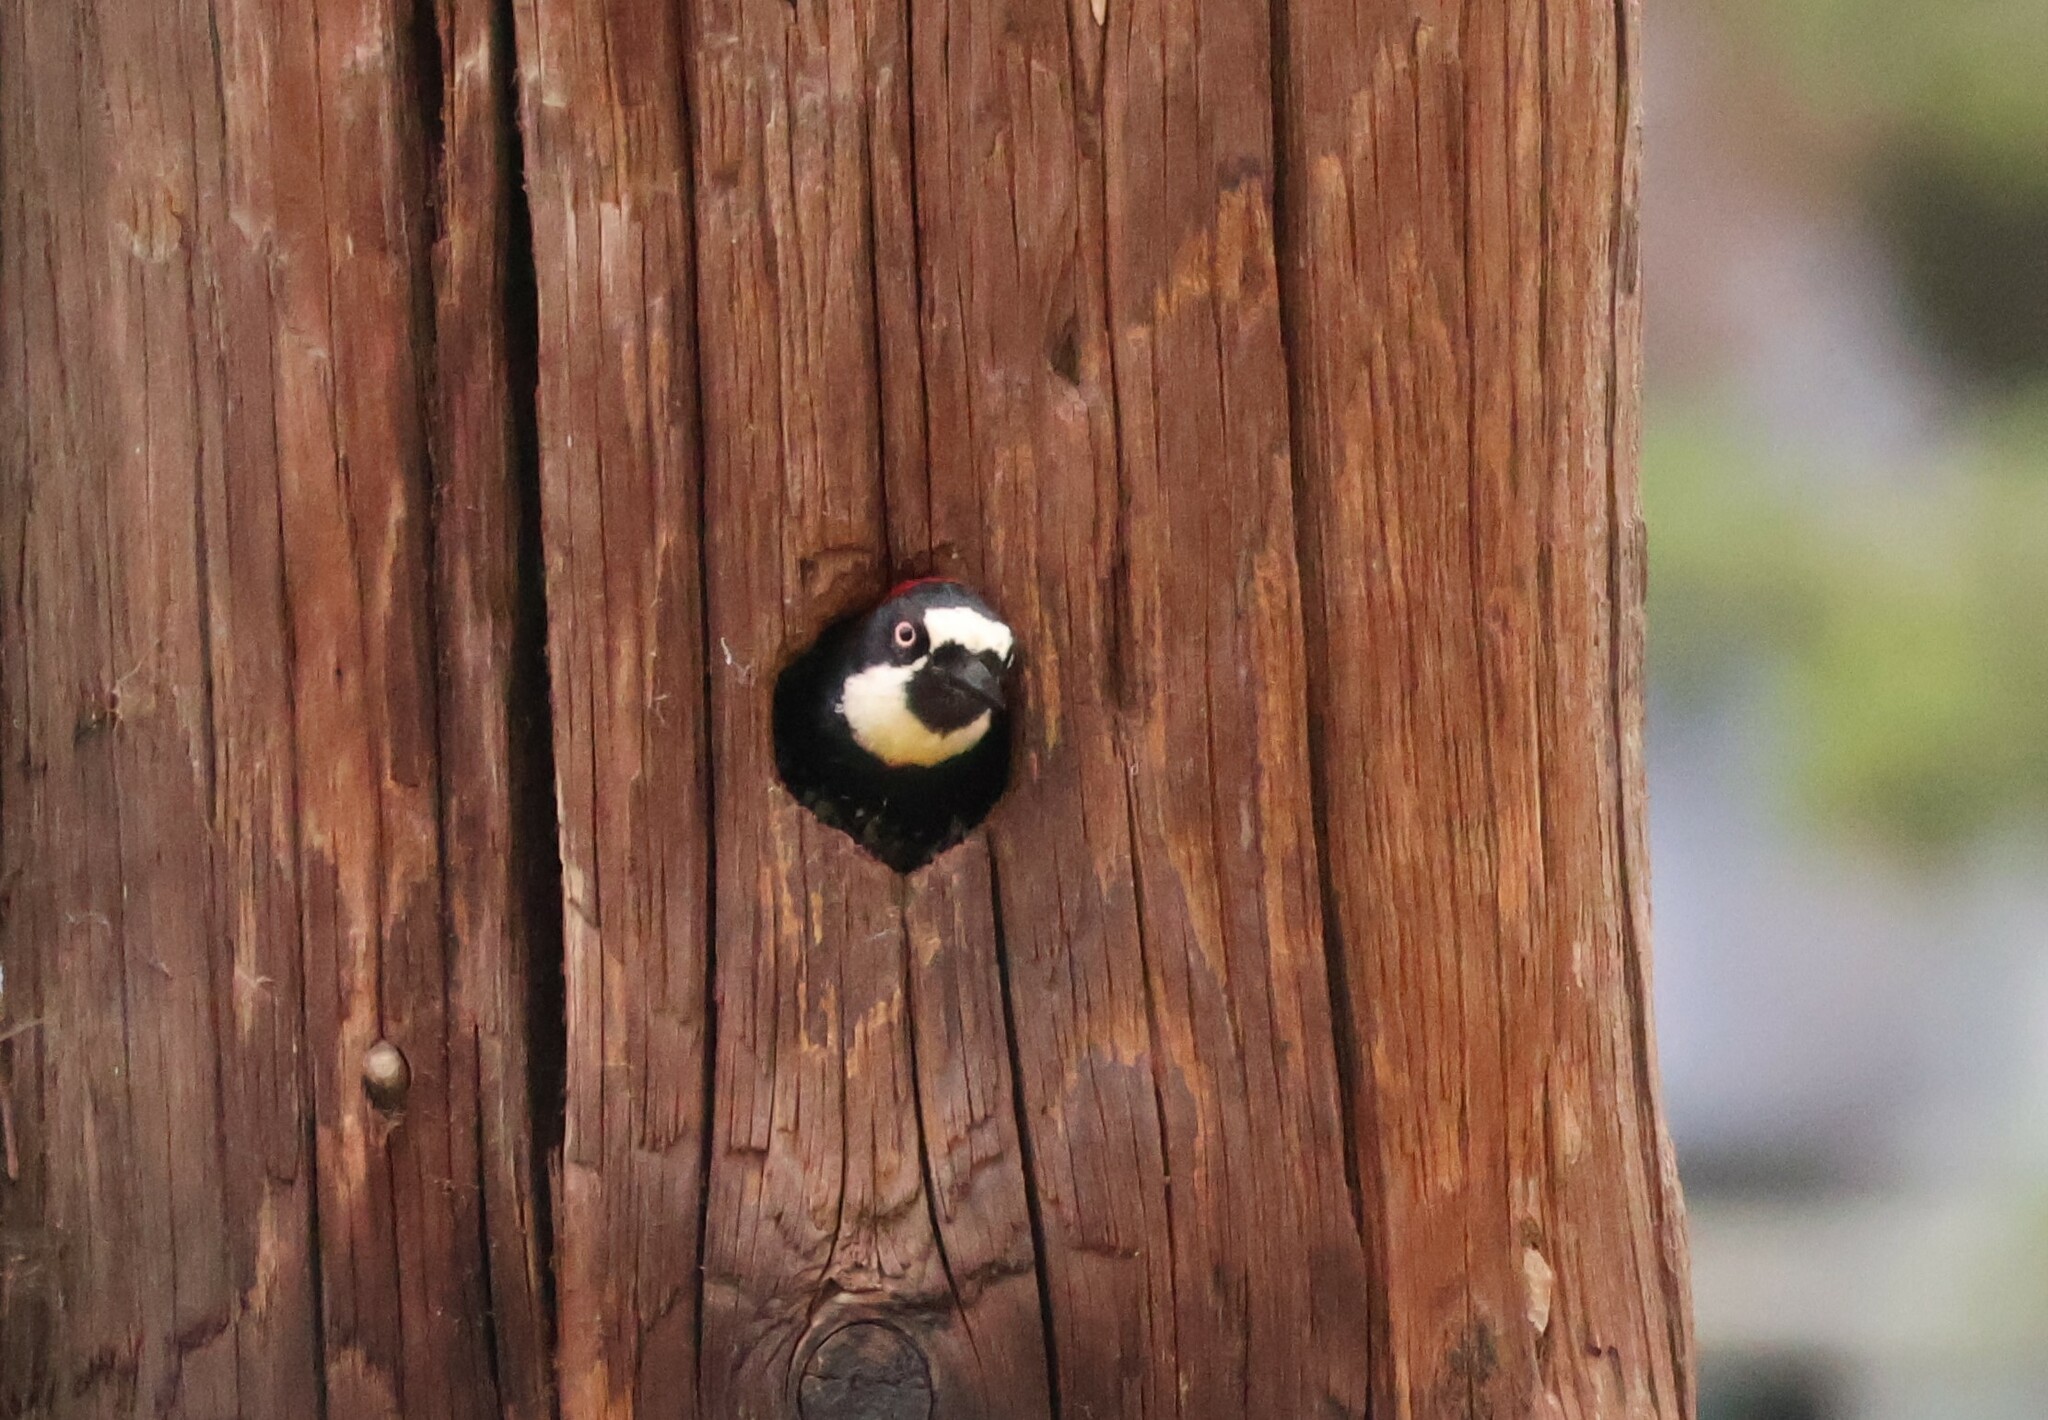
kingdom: Animalia
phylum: Chordata
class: Aves
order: Piciformes
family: Picidae
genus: Melanerpes
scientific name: Melanerpes formicivorus
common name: Acorn woodpecker
